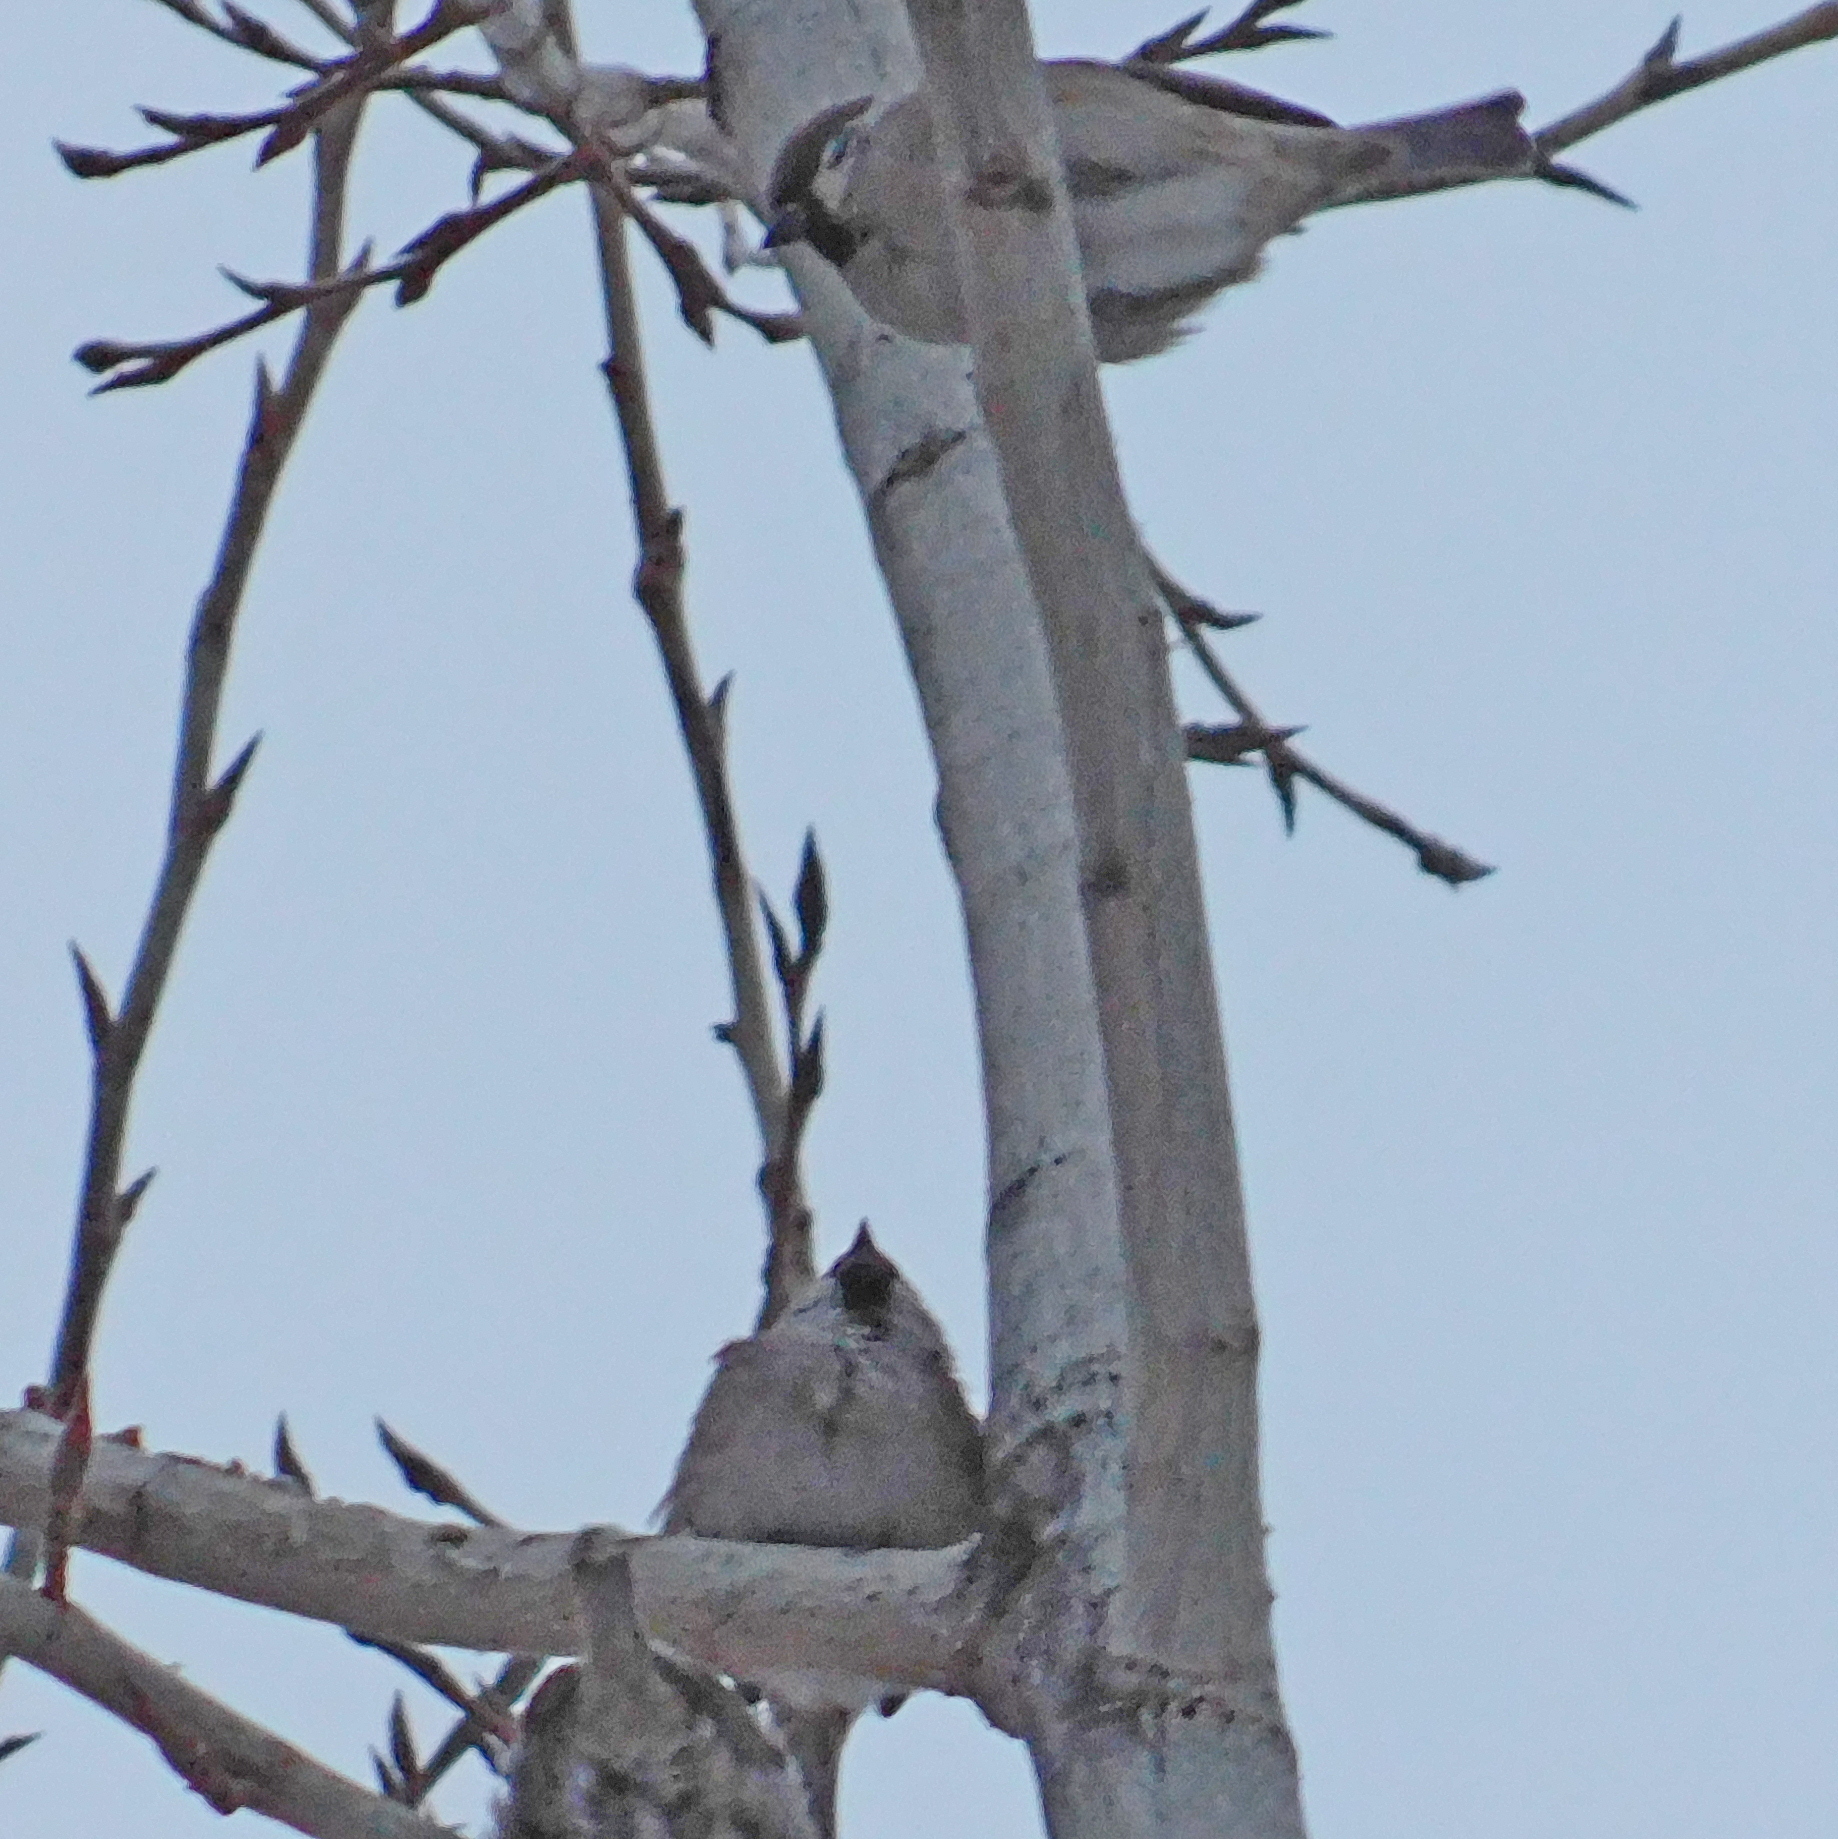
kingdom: Animalia
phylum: Chordata
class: Aves
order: Passeriformes
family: Passeridae
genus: Passer
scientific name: Passer montanus
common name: Eurasian tree sparrow
